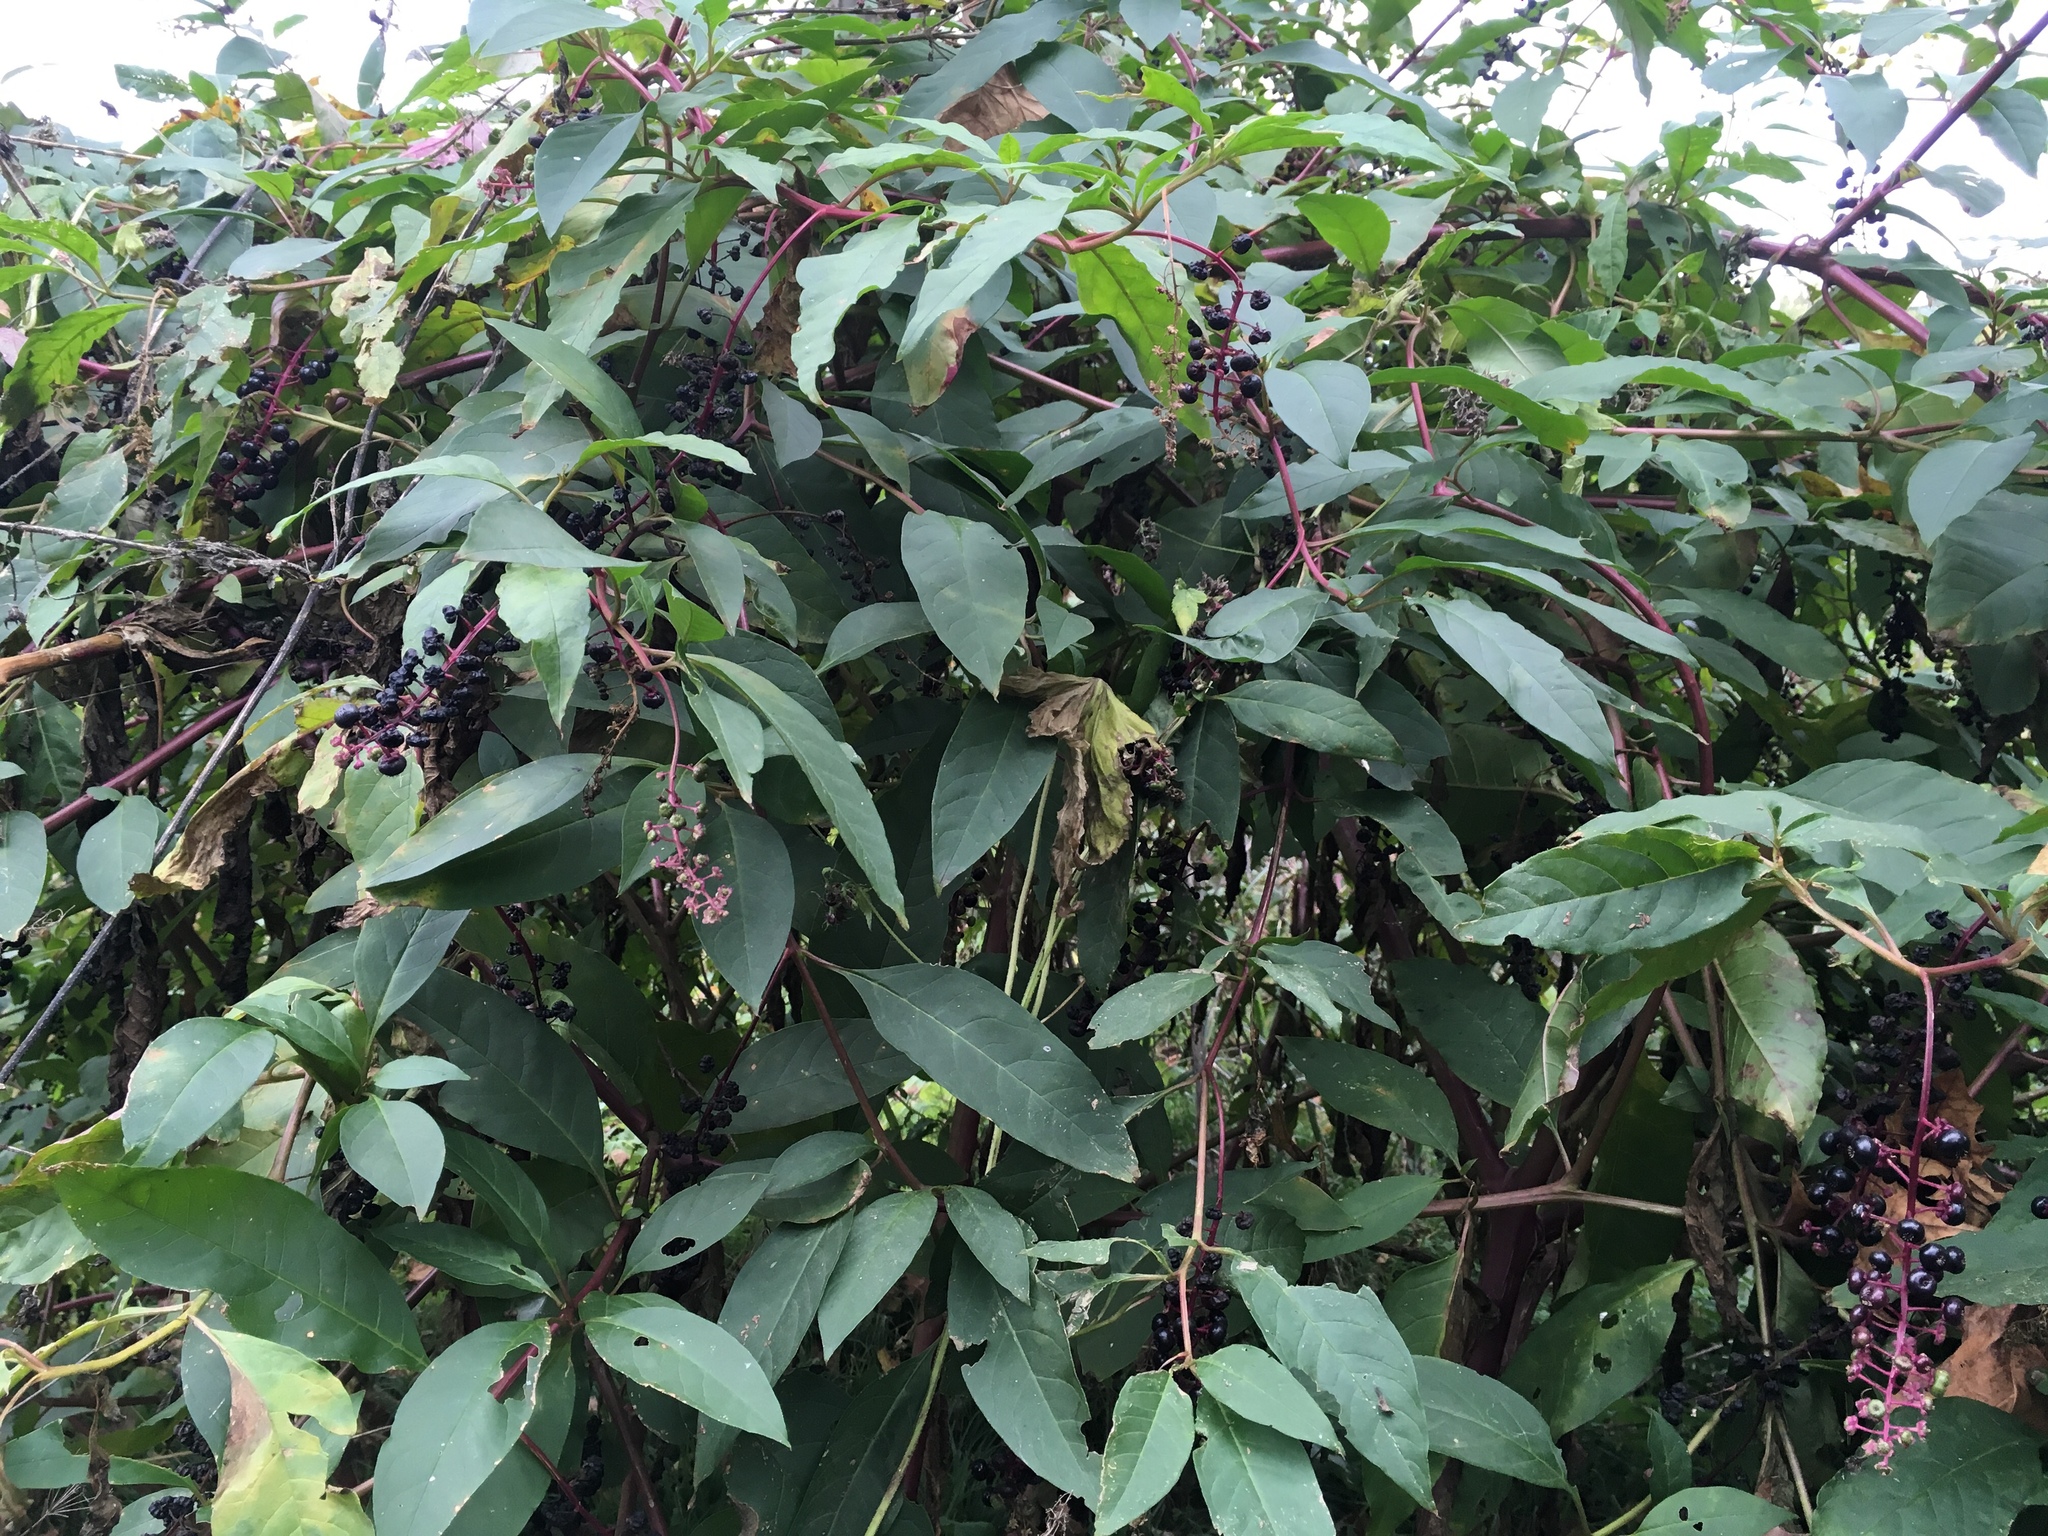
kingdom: Plantae
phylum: Tracheophyta
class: Magnoliopsida
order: Caryophyllales
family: Phytolaccaceae
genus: Phytolacca
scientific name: Phytolacca americana
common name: American pokeweed
